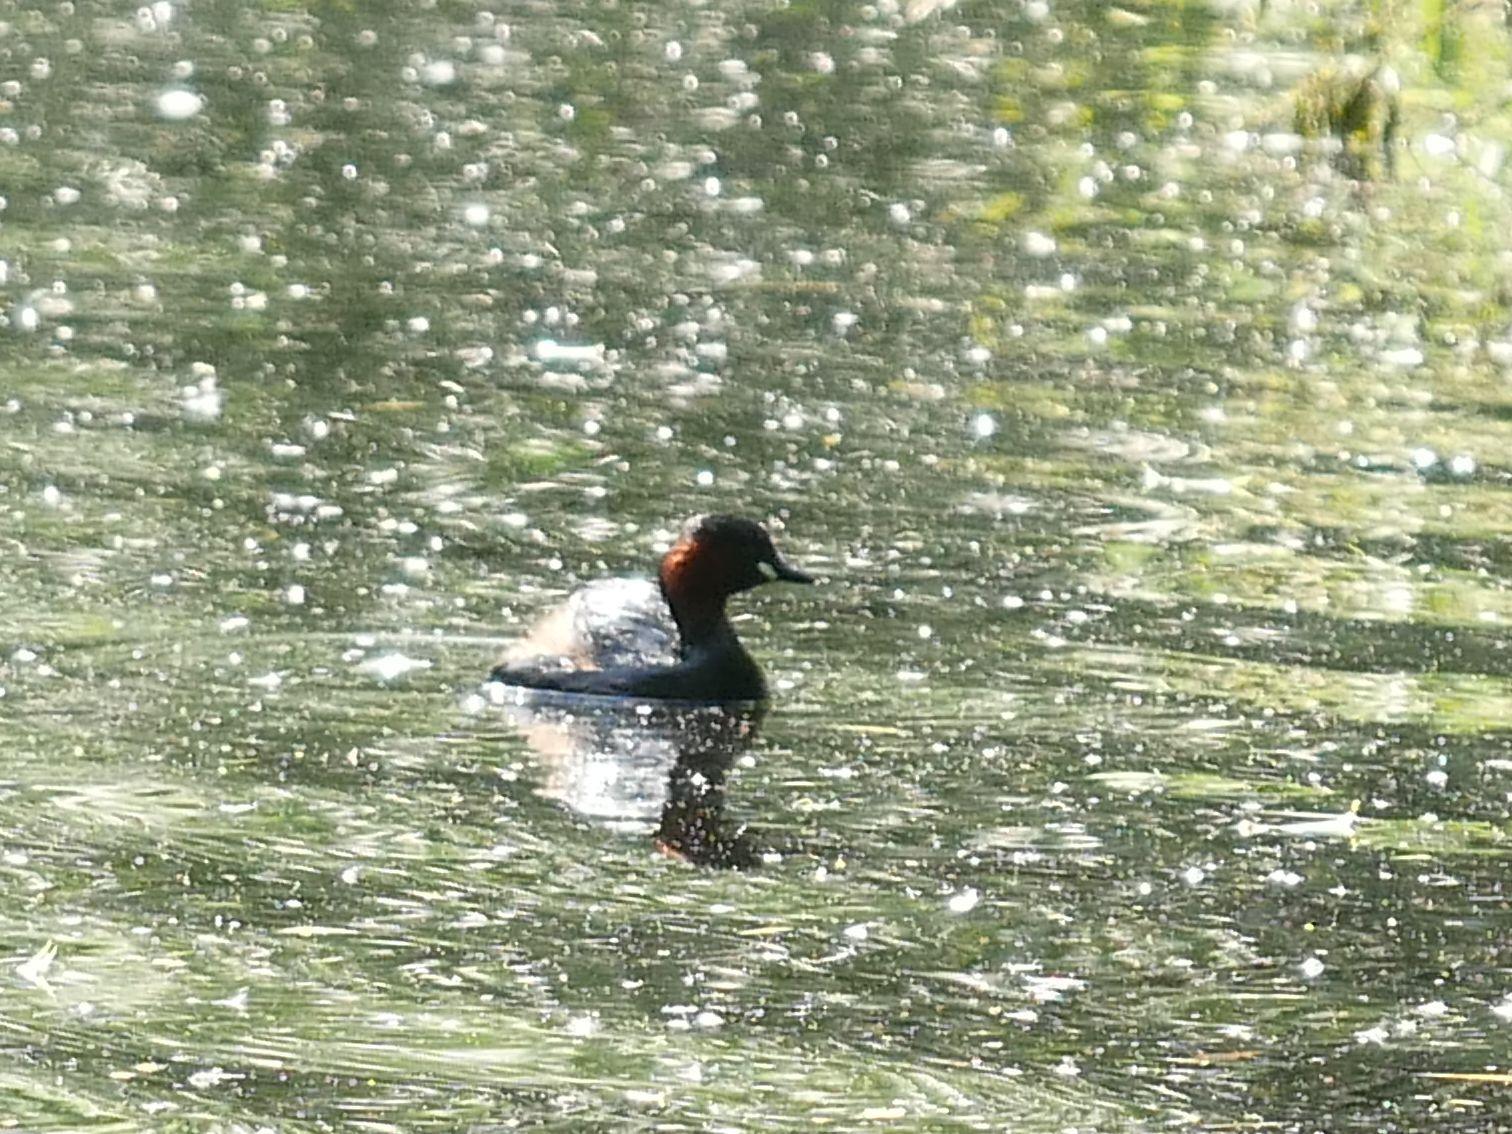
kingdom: Animalia
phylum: Chordata
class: Aves
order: Podicipediformes
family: Podicipedidae
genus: Tachybaptus
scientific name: Tachybaptus ruficollis
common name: Little grebe
